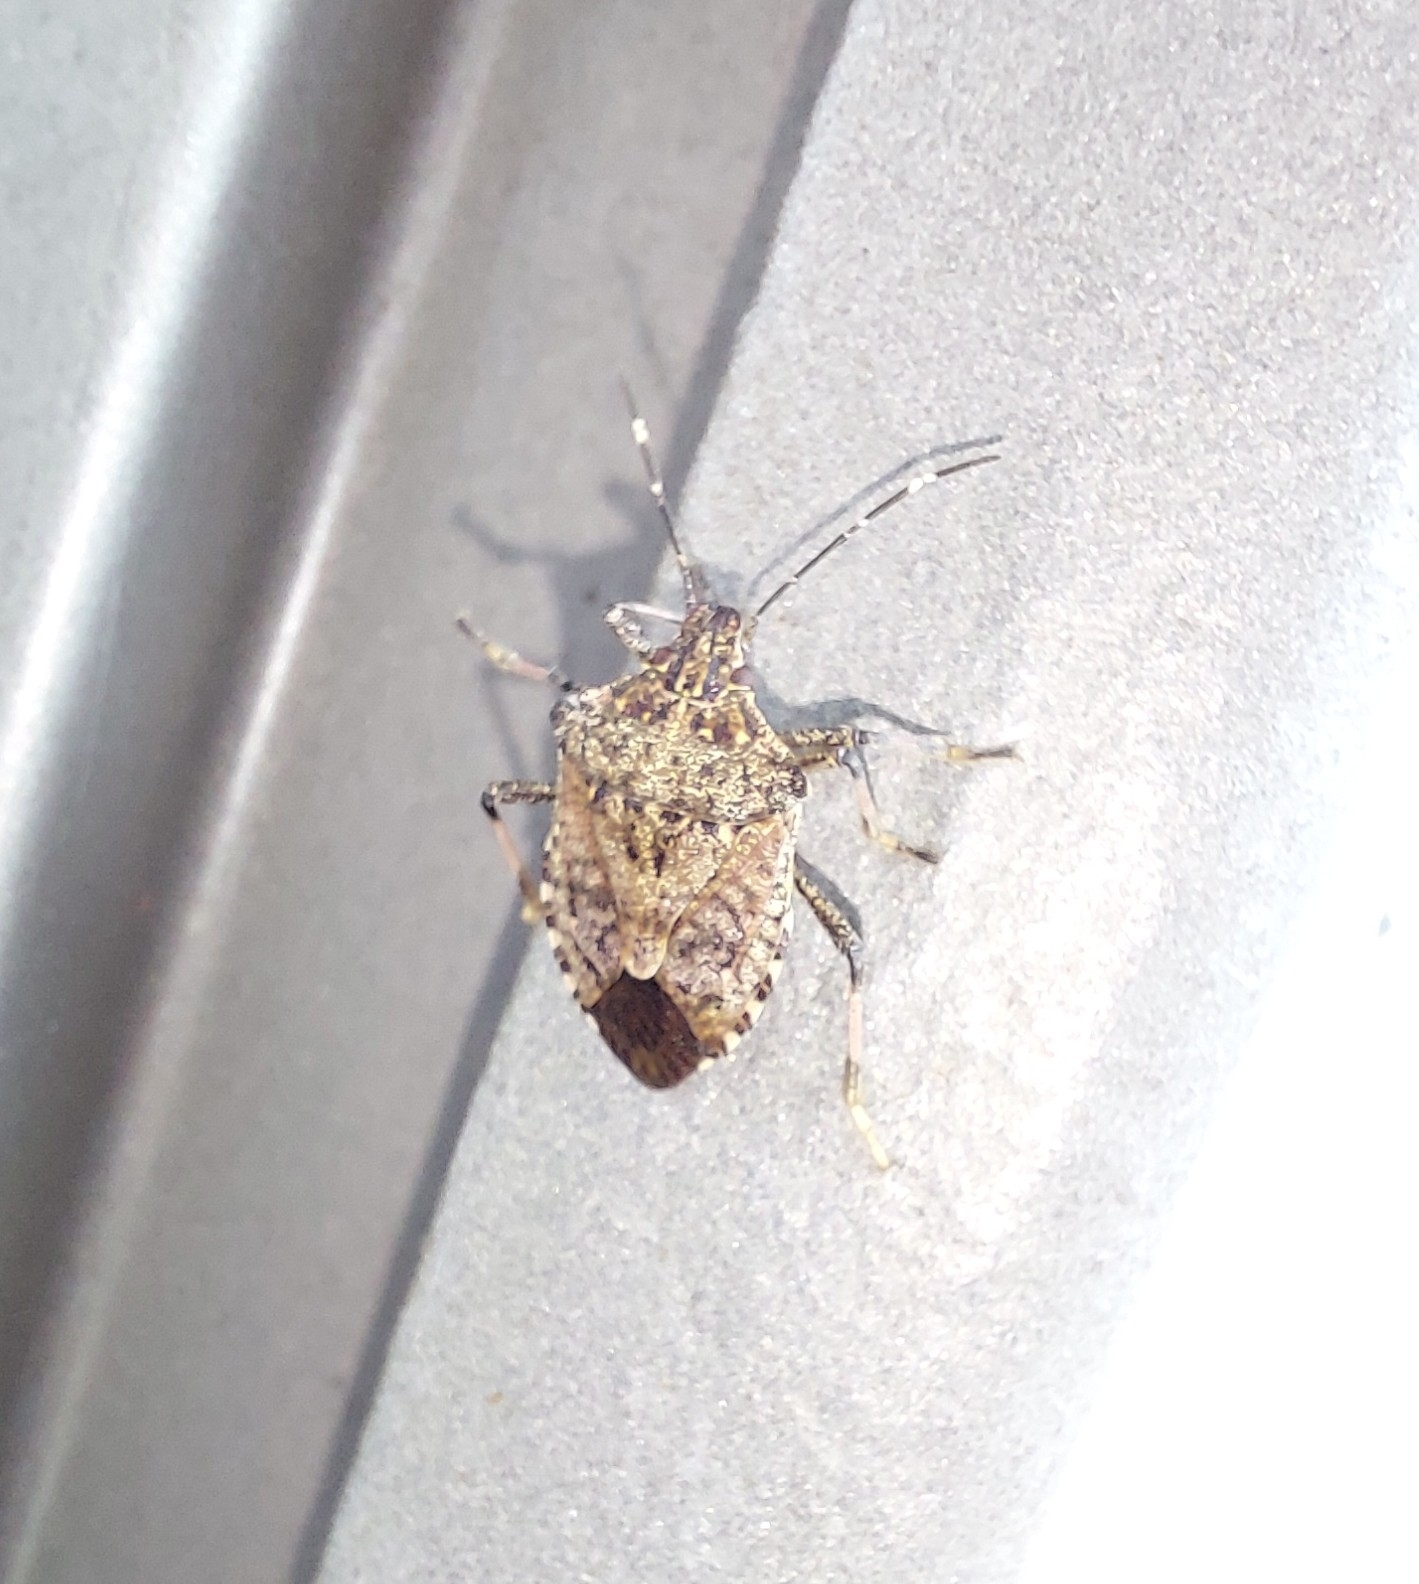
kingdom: Animalia
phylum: Arthropoda
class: Insecta
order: Hemiptera
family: Pentatomidae
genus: Halyomorpha
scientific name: Halyomorpha halys
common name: Brown marmorated stink bug
